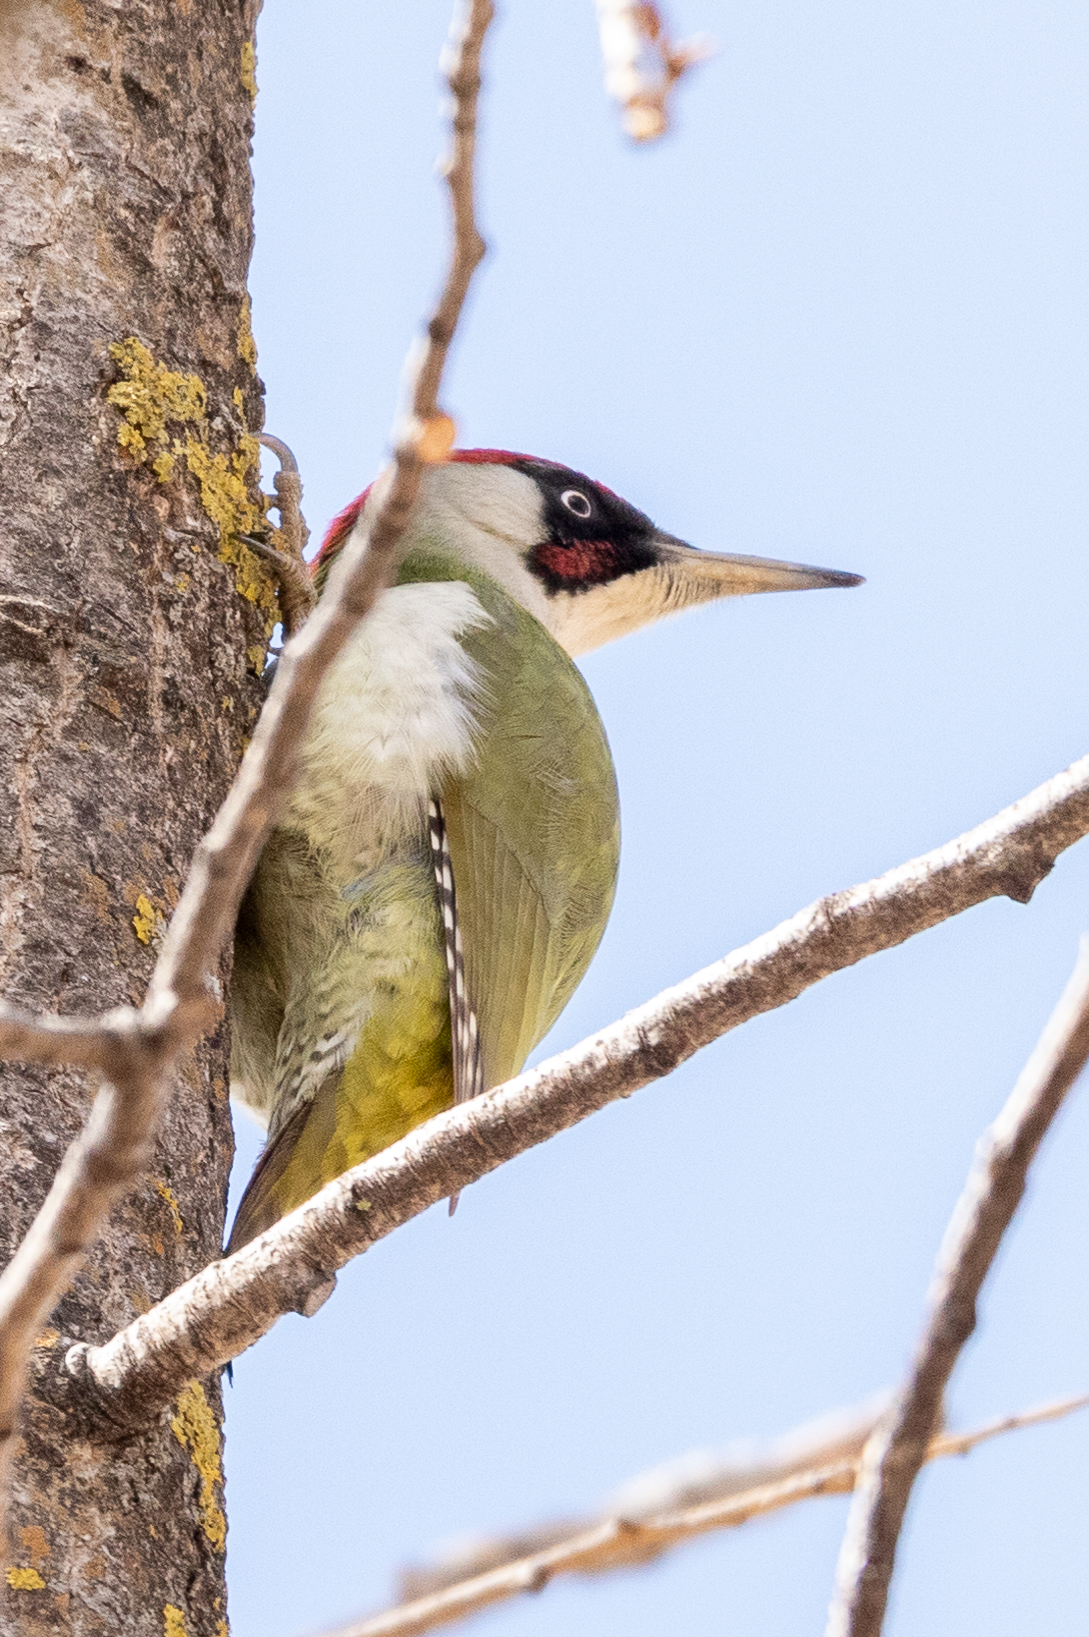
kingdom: Animalia
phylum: Chordata
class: Aves
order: Piciformes
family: Picidae
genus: Picus
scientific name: Picus viridis
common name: European green woodpecker
